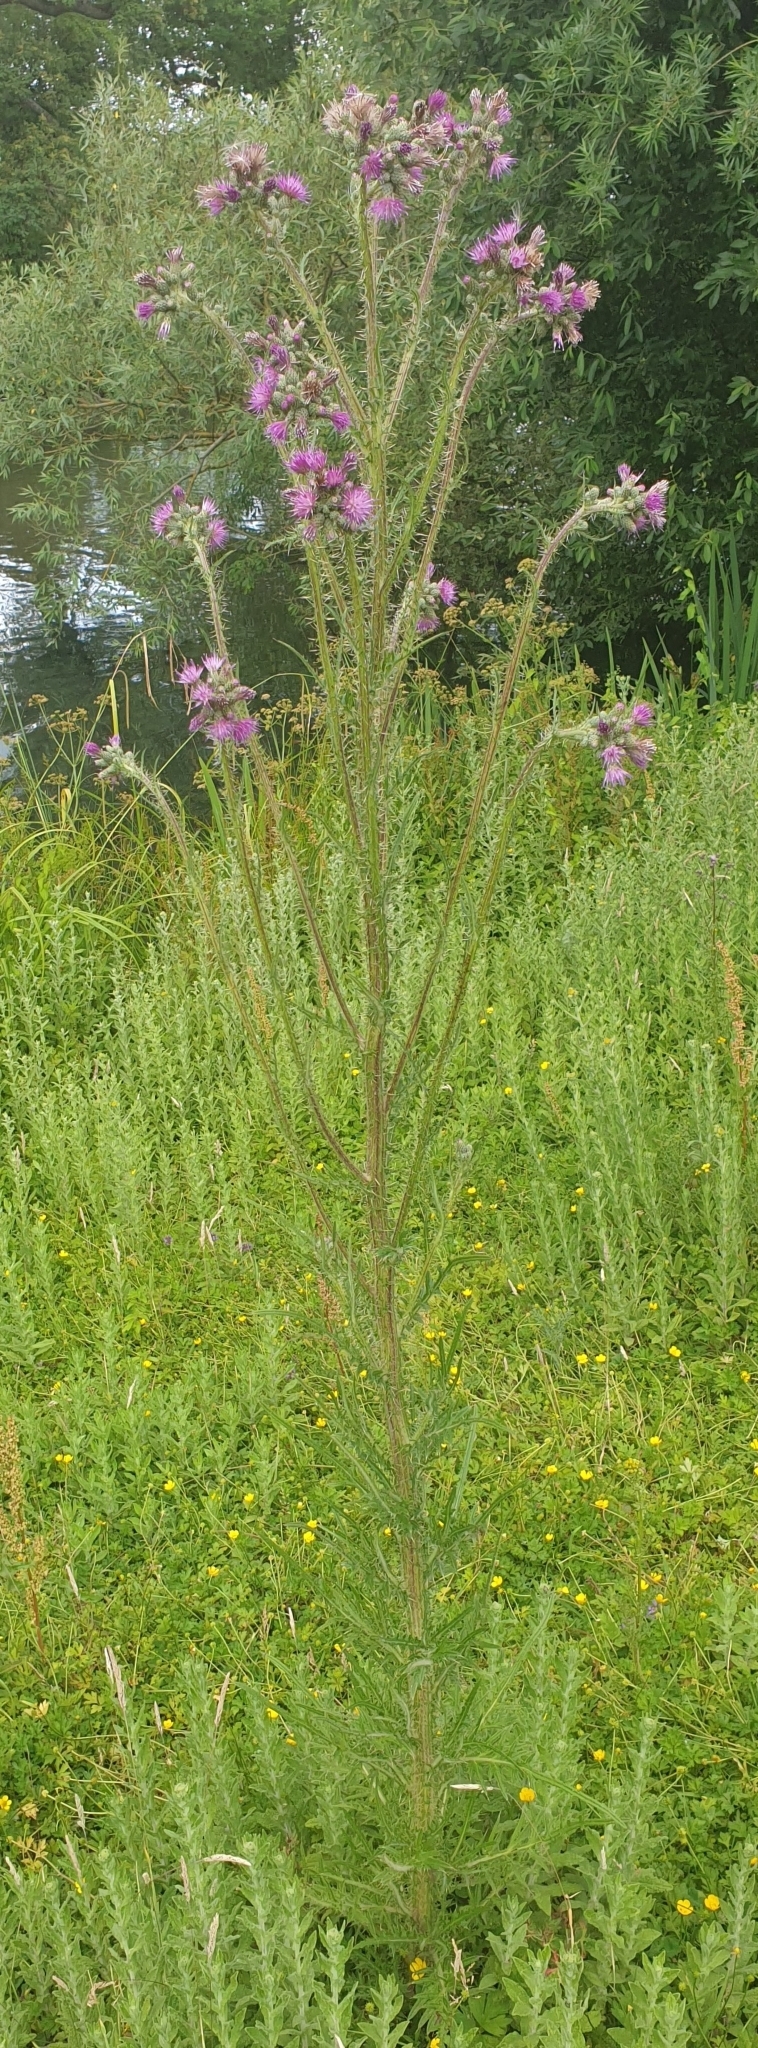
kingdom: Plantae
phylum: Tracheophyta
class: Magnoliopsida
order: Asterales
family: Asteraceae
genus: Cirsium
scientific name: Cirsium palustre
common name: Marsh thistle
